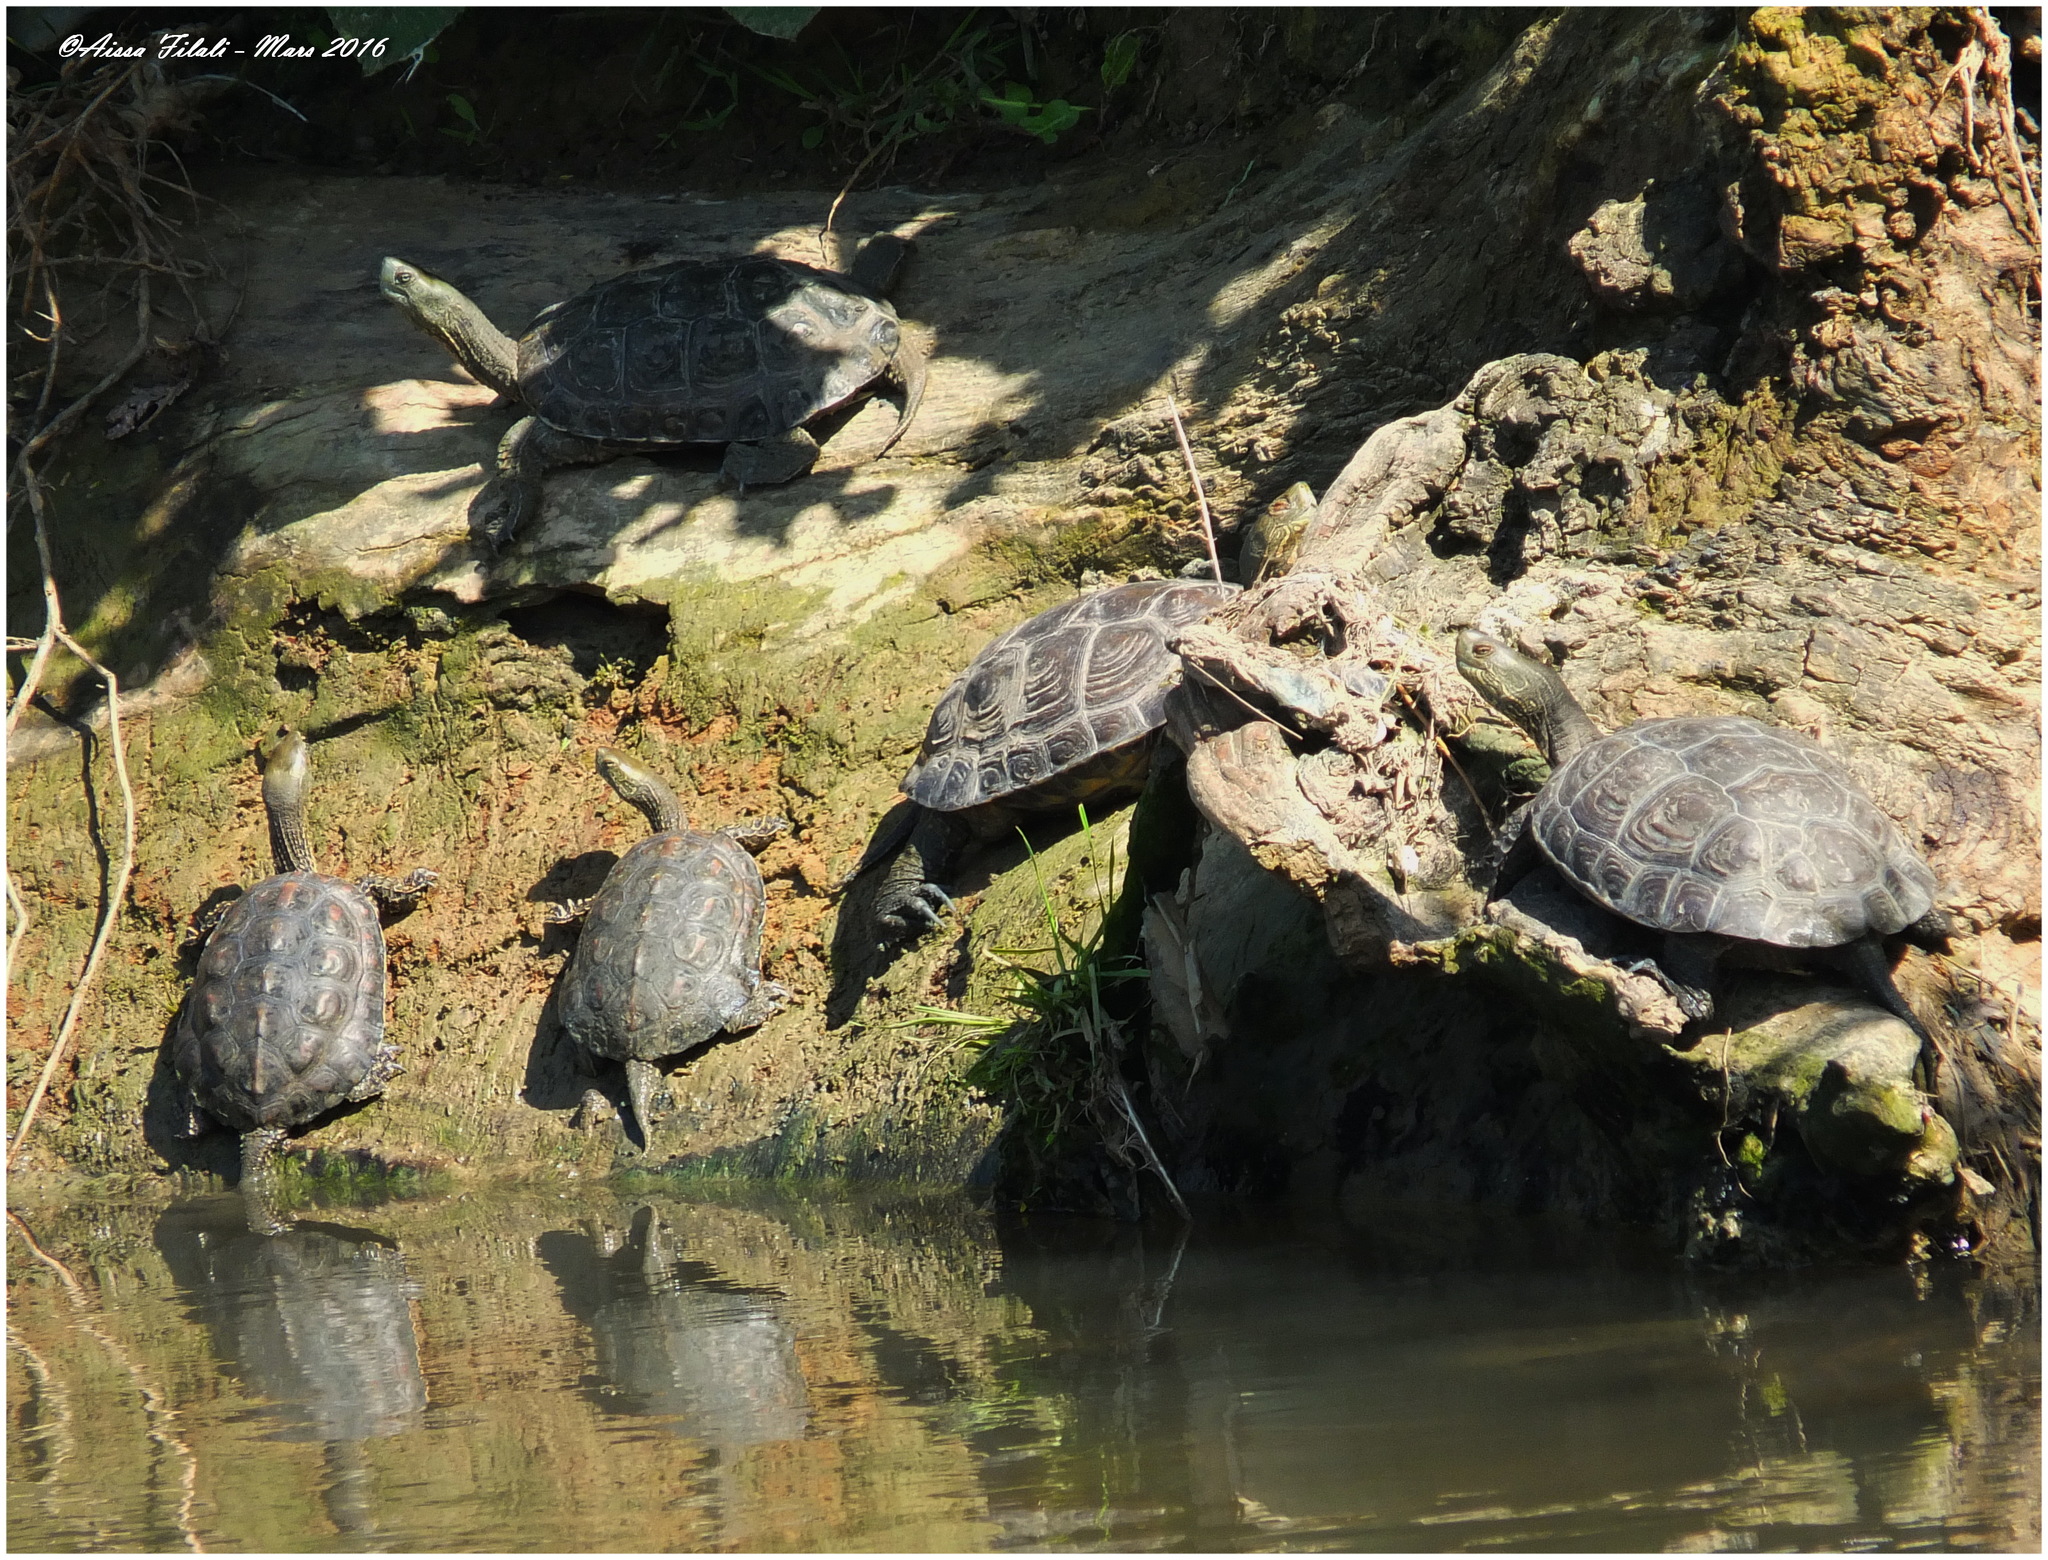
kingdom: Animalia
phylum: Chordata
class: Testudines
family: Geoemydidae
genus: Mauremys
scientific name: Mauremys leprosa
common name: Mediterranean pond turtle
